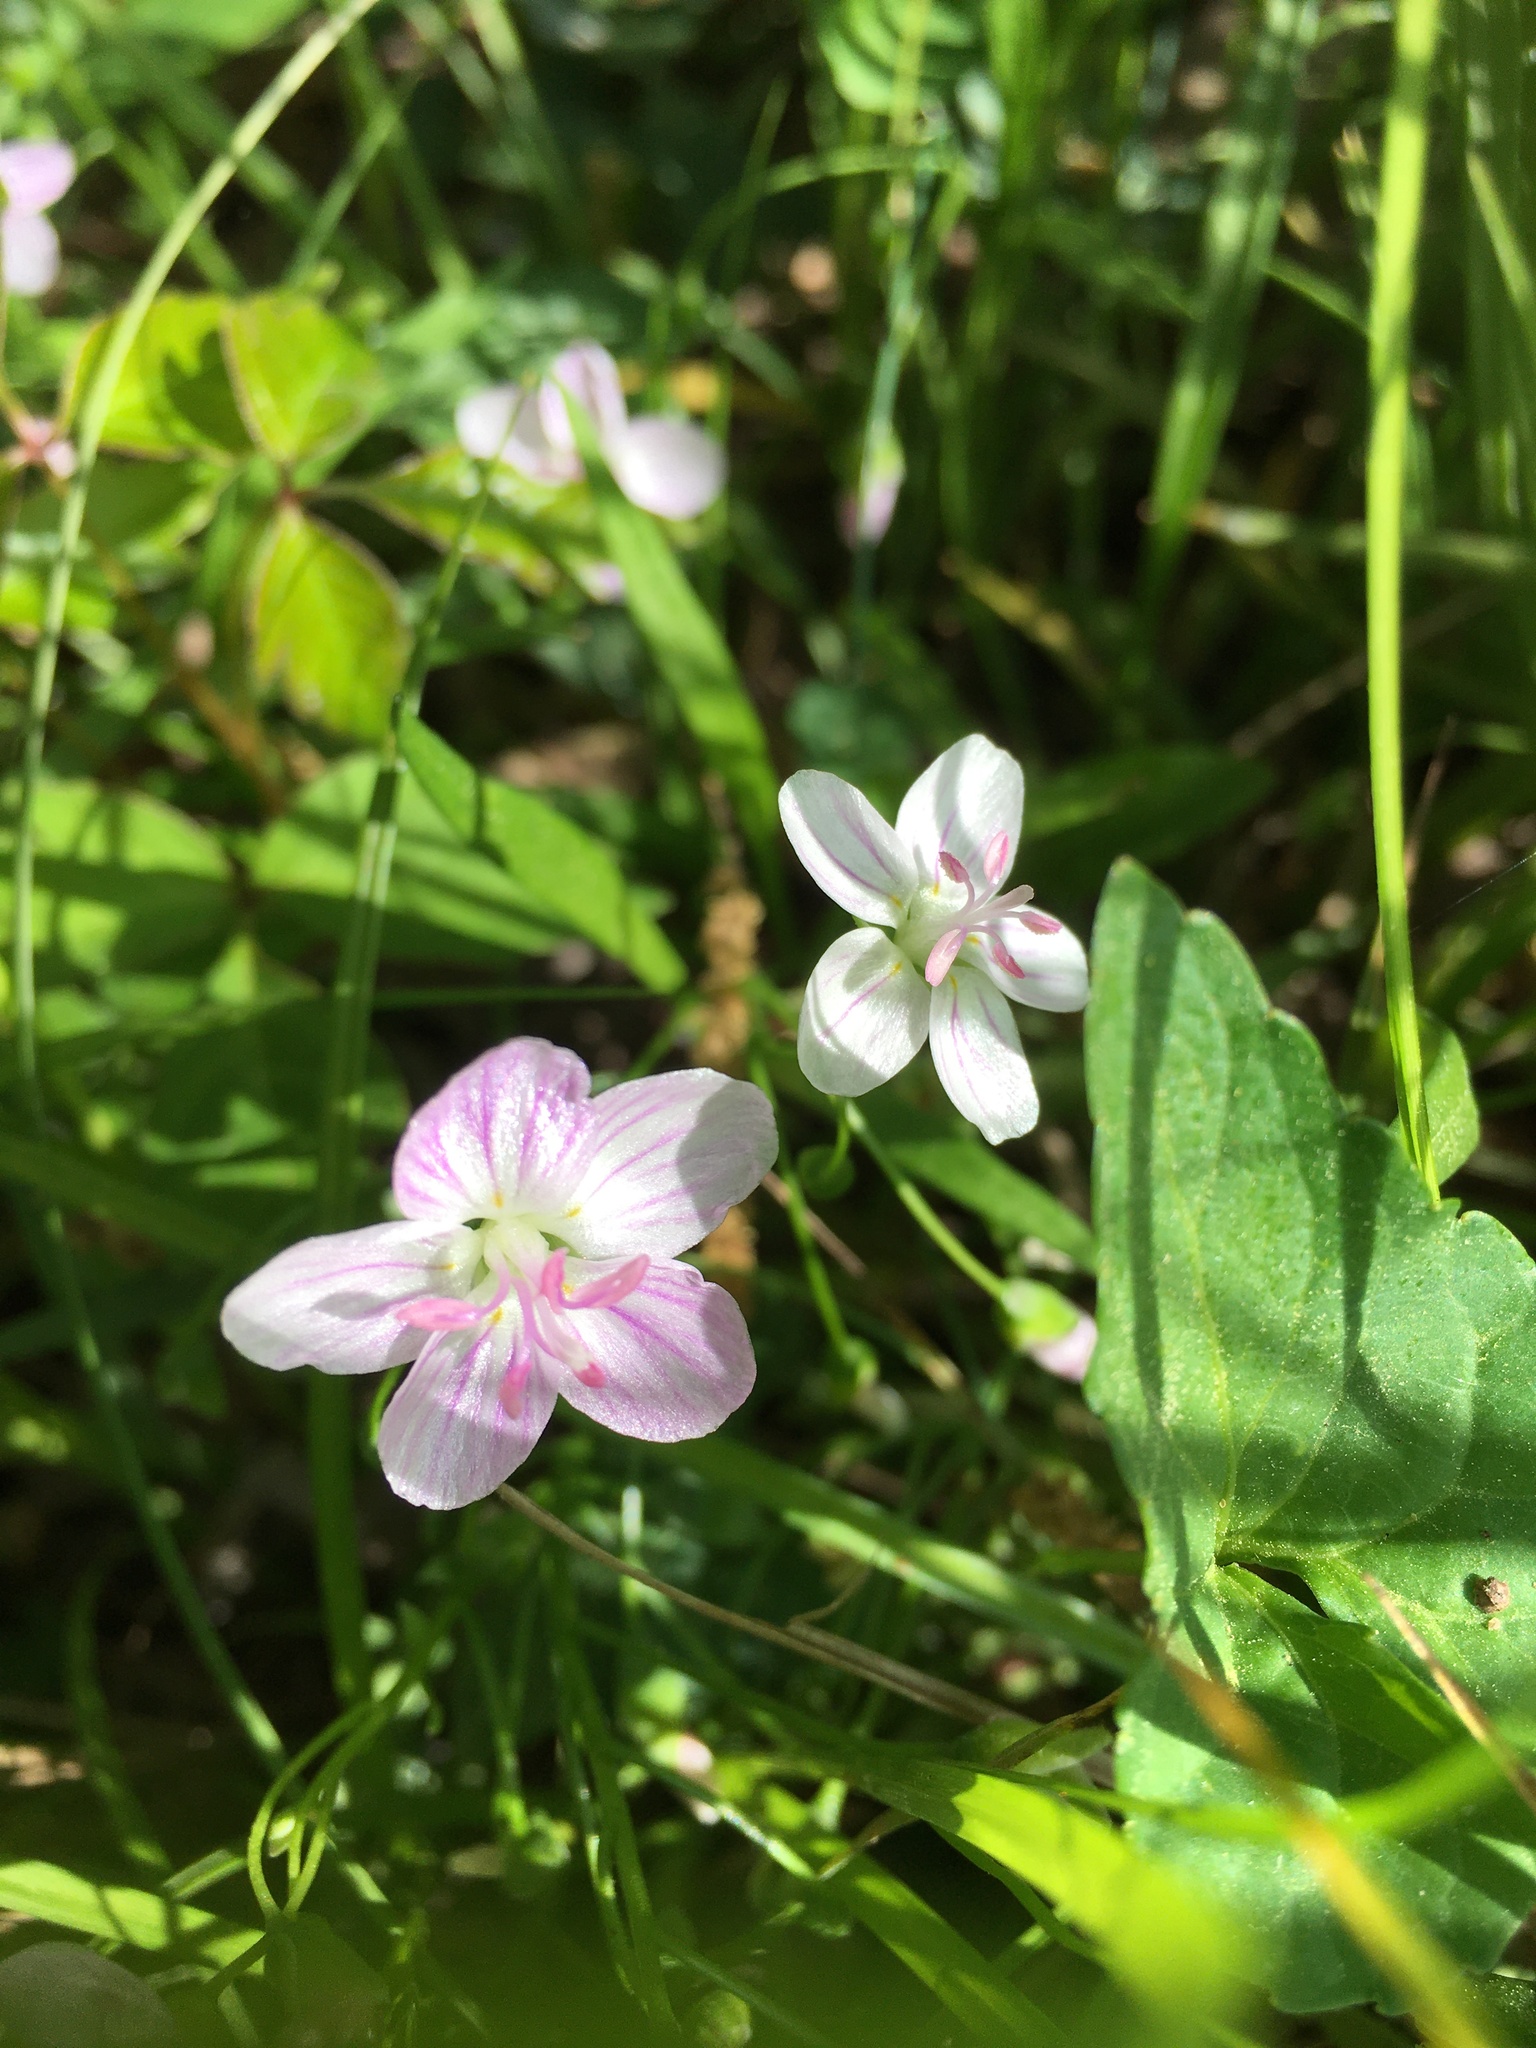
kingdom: Plantae
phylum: Tracheophyta
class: Magnoliopsida
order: Caryophyllales
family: Montiaceae
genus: Claytonia
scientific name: Claytonia virginica
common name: Virginia springbeauty
